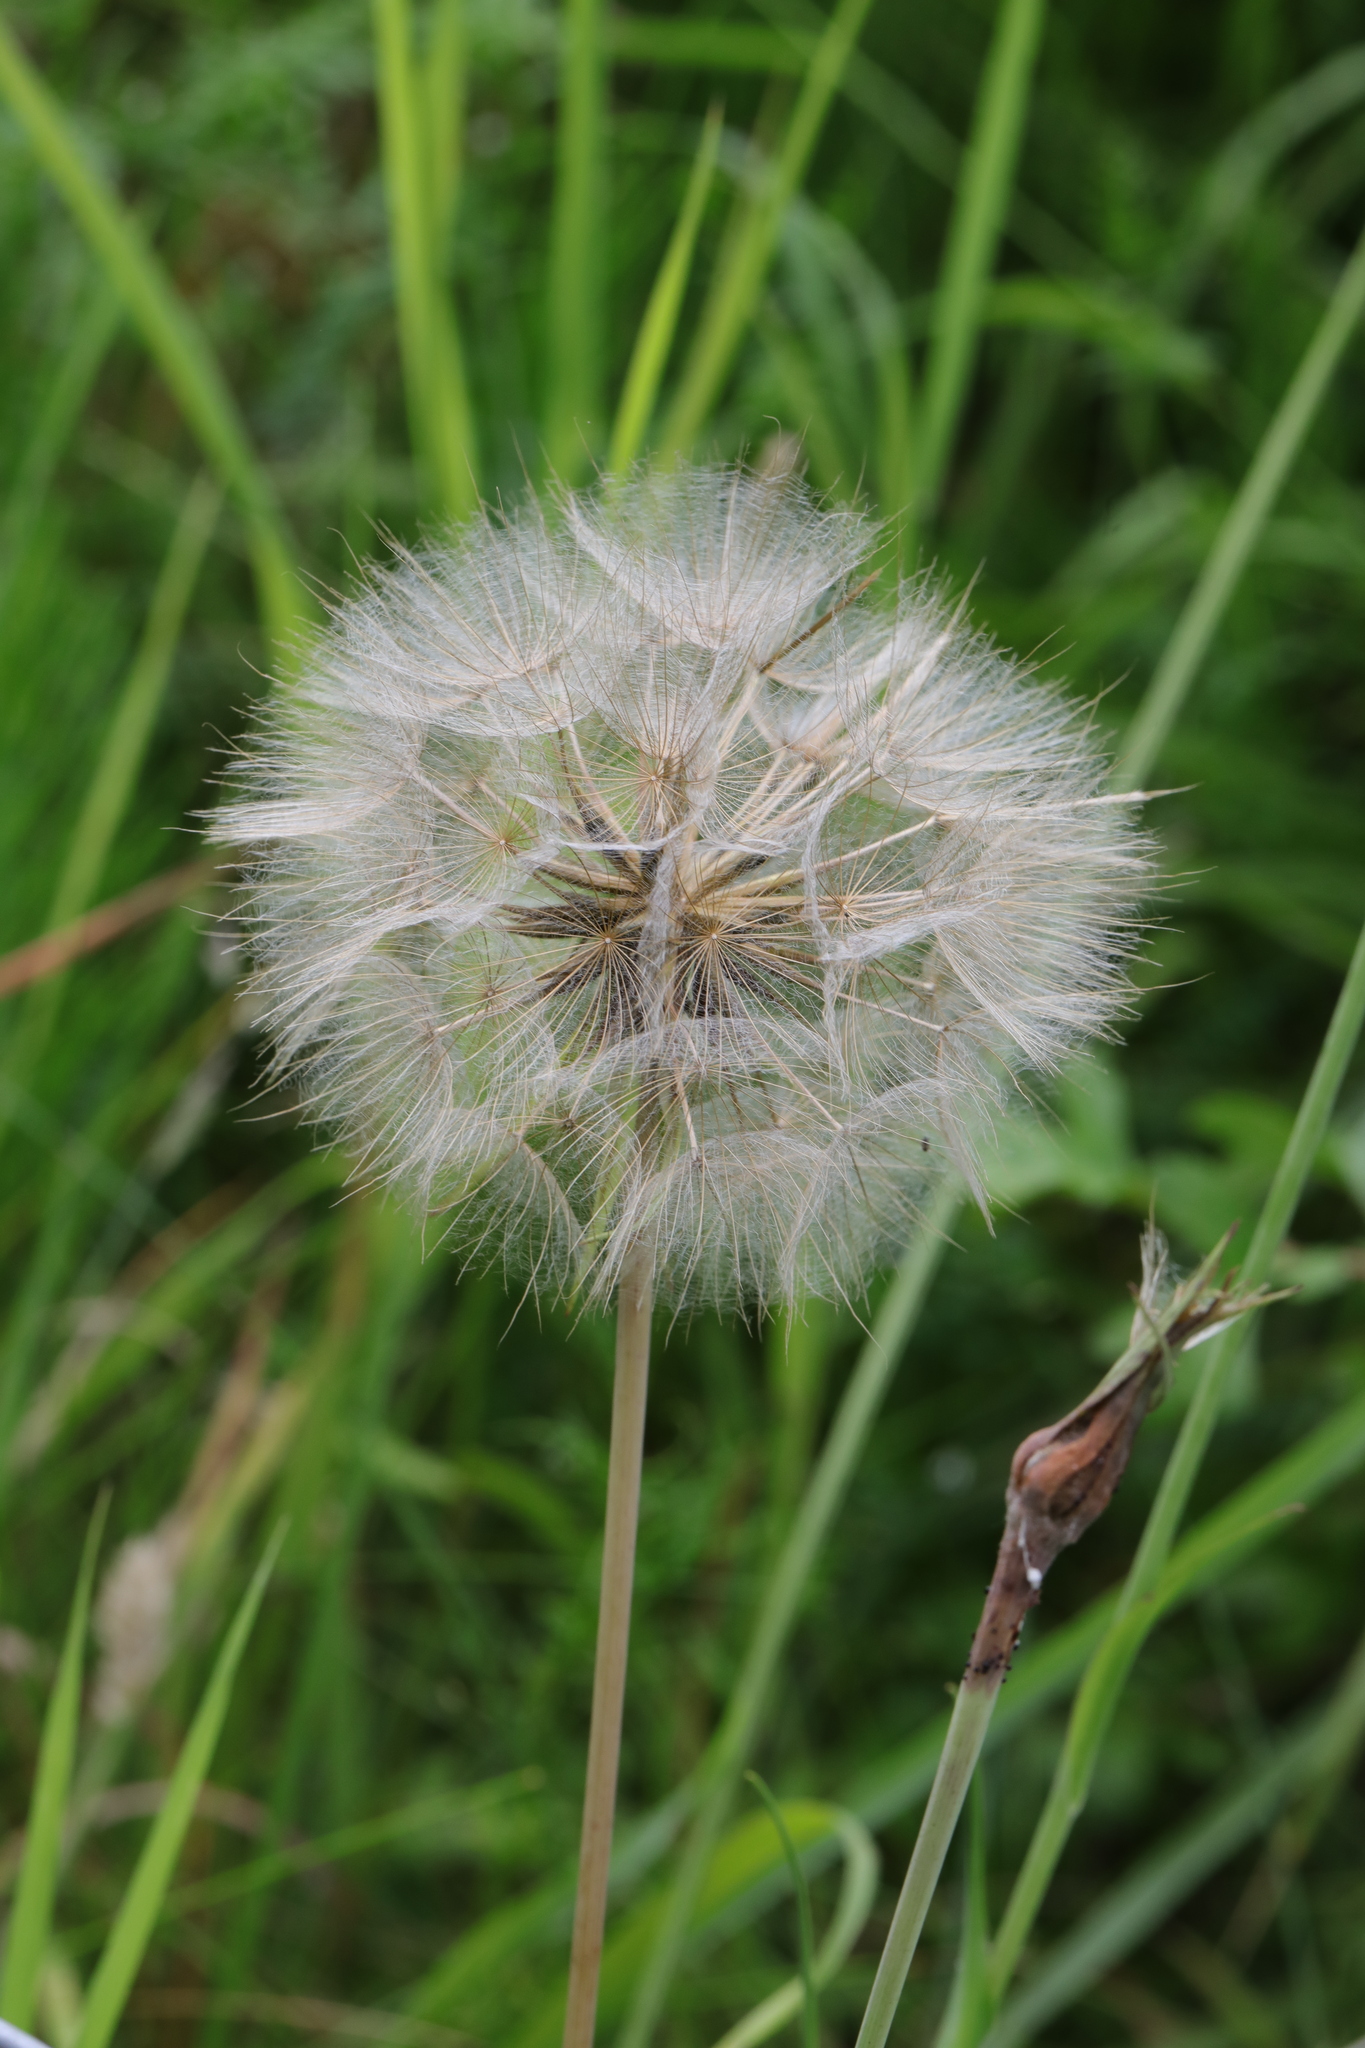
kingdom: Plantae
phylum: Tracheophyta
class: Magnoliopsida
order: Asterales
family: Asteraceae
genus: Tragopogon
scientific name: Tragopogon pratensis
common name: Goat's-beard
